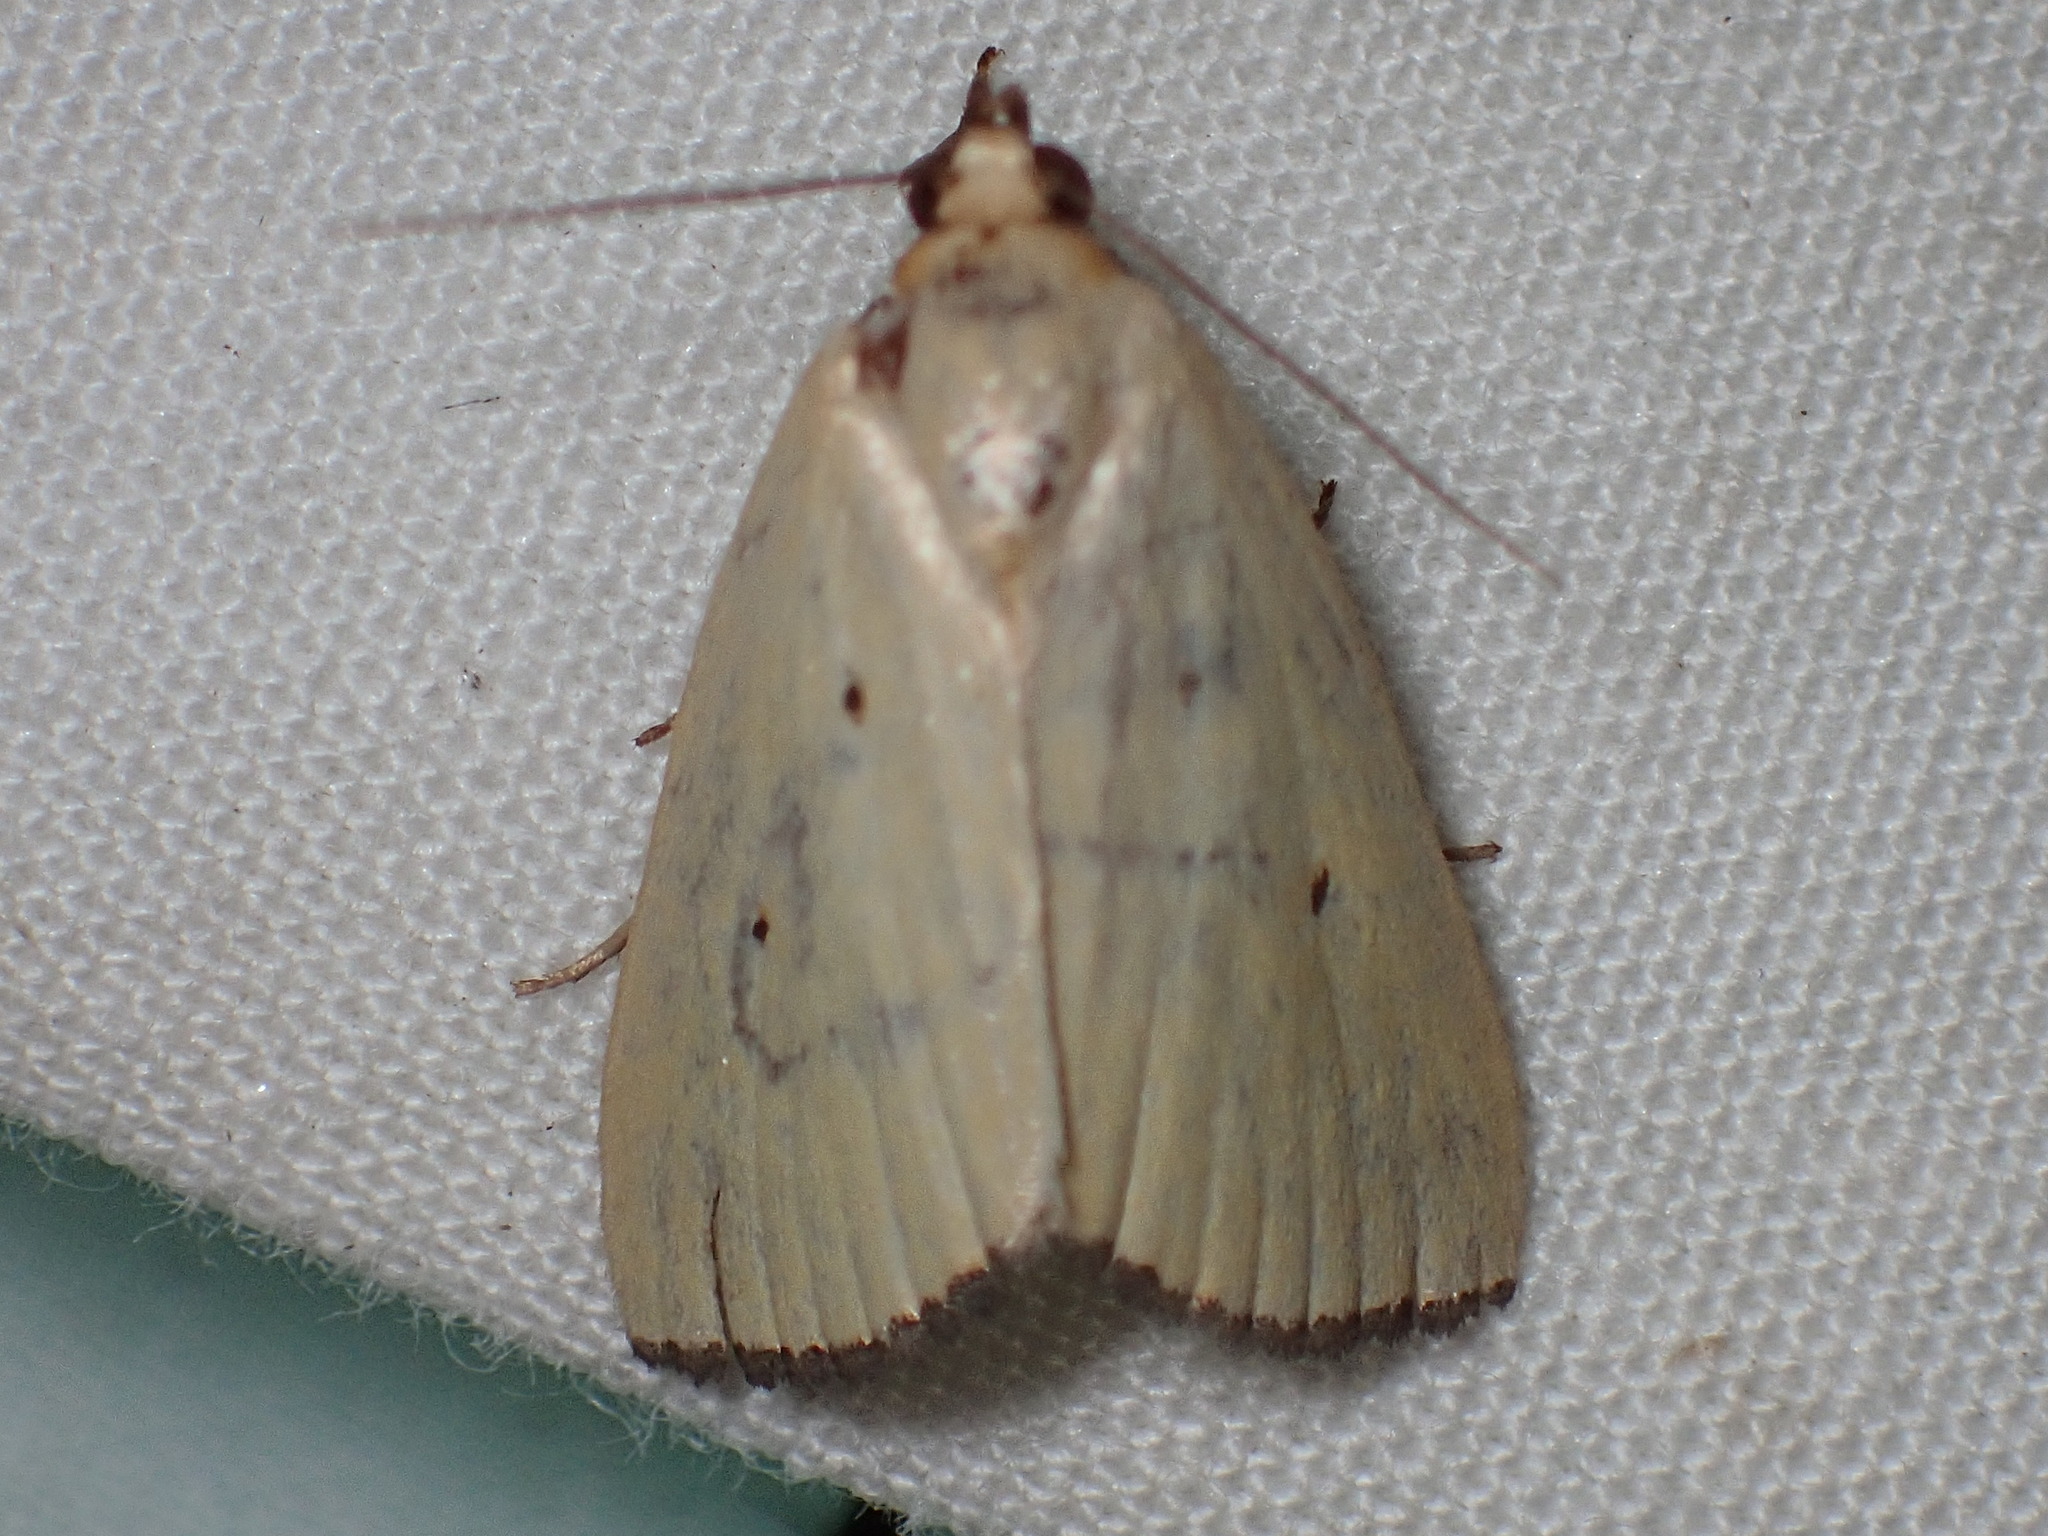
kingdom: Animalia
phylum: Arthropoda
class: Insecta
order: Lepidoptera
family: Noctuidae
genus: Marimatha
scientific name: Marimatha nigrofimbria
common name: Black-bordered lemon moth
